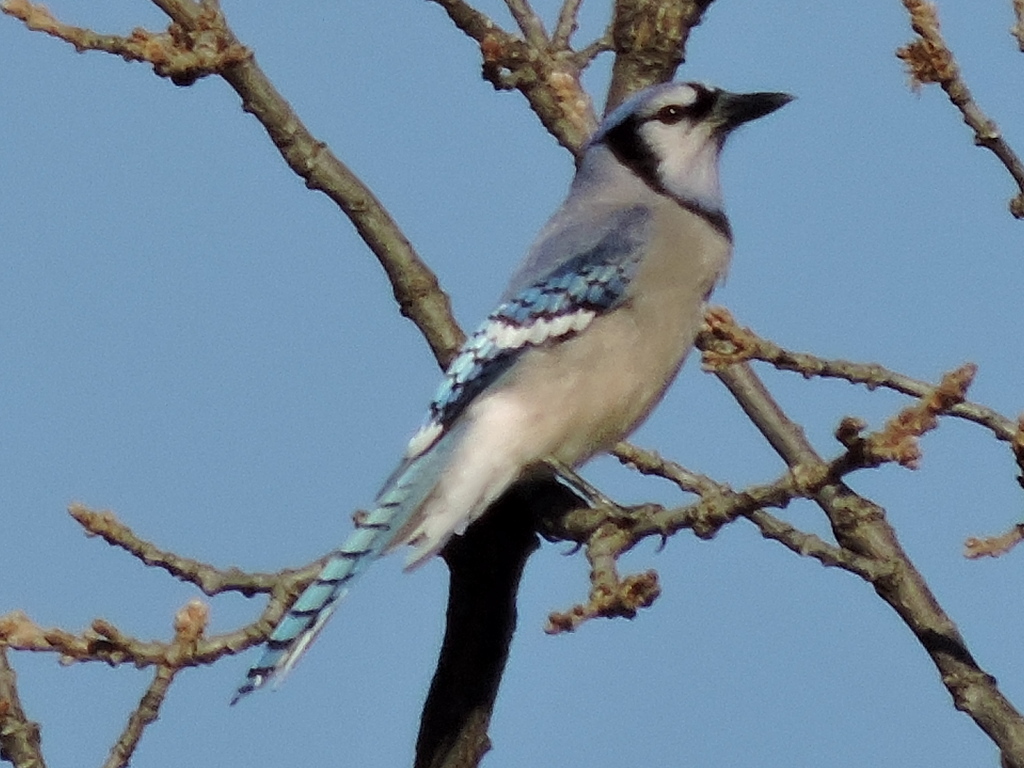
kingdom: Animalia
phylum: Chordata
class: Aves
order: Passeriformes
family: Corvidae
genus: Cyanocitta
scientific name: Cyanocitta cristata
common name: Blue jay
